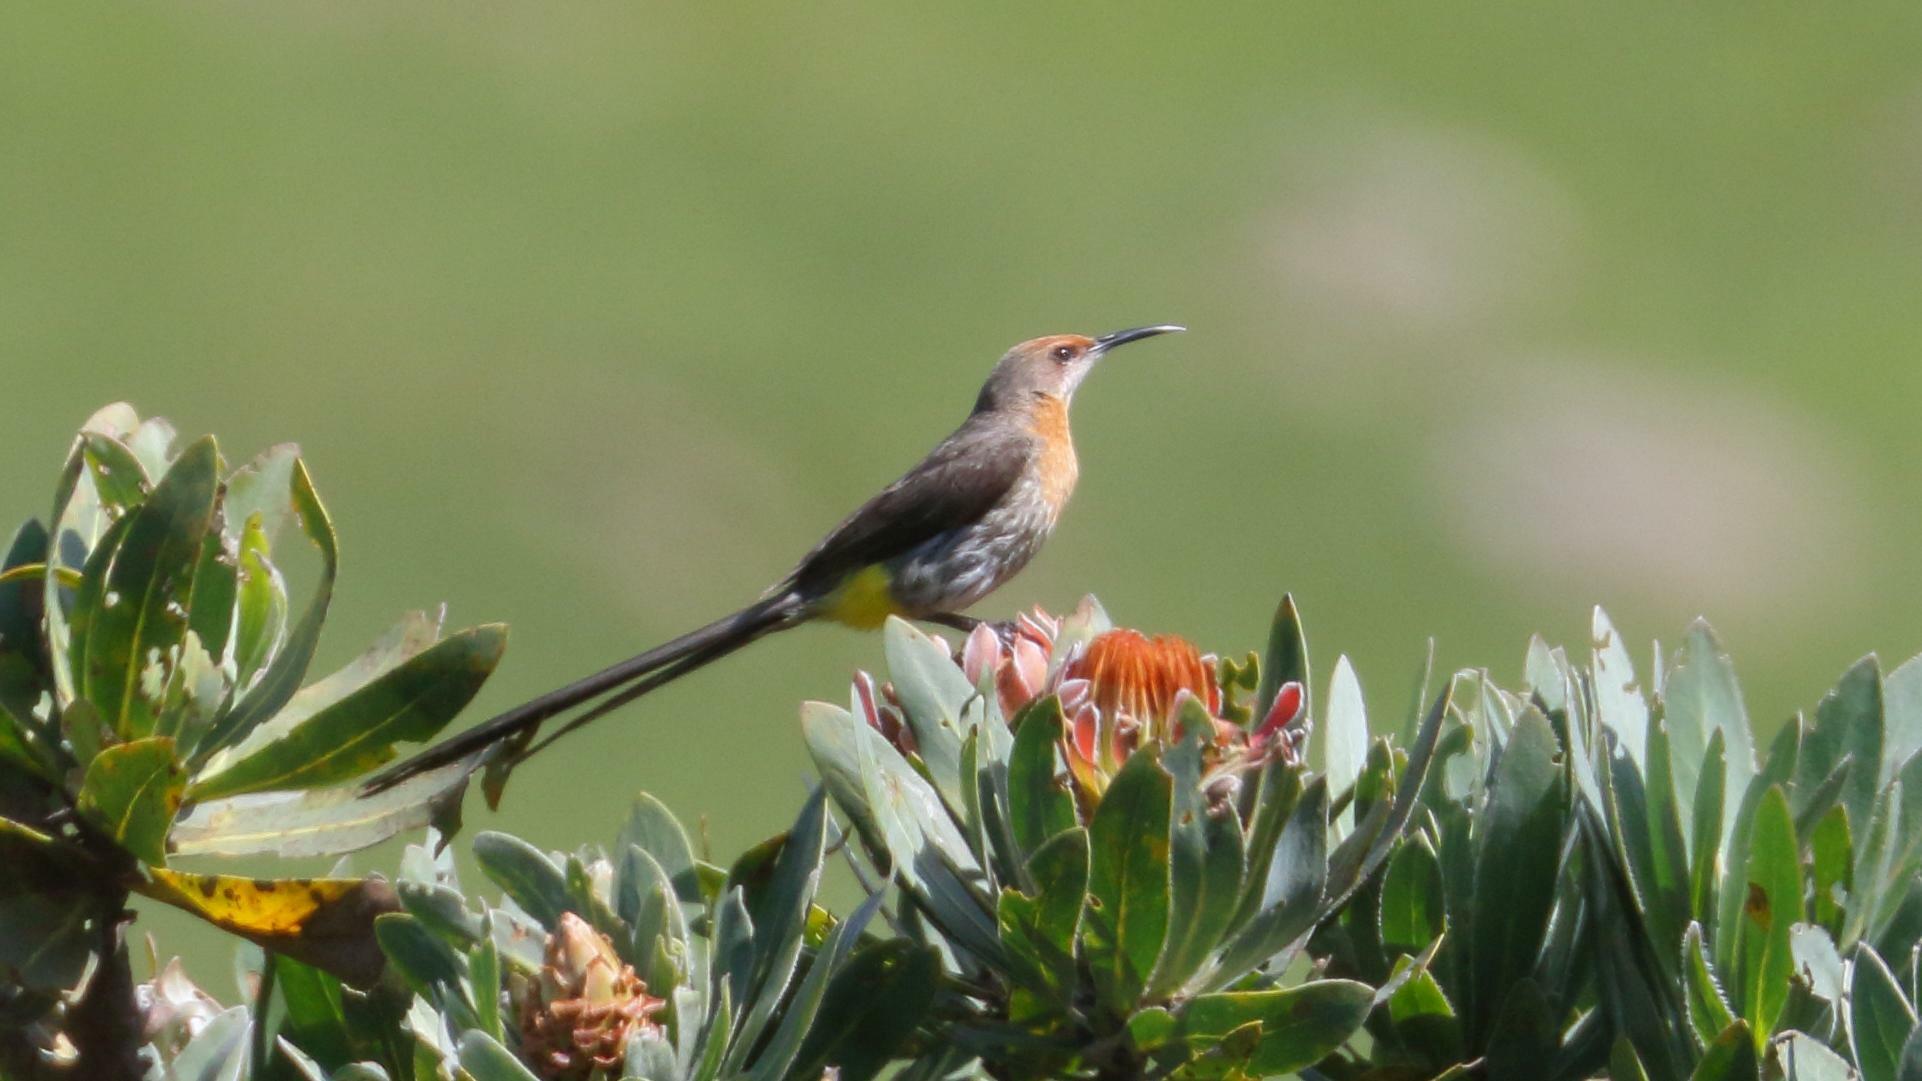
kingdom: Animalia
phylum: Chordata
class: Aves
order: Passeriformes
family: Promeropidae
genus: Promerops
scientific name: Promerops gurneyi
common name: Gurney's sugarbird
